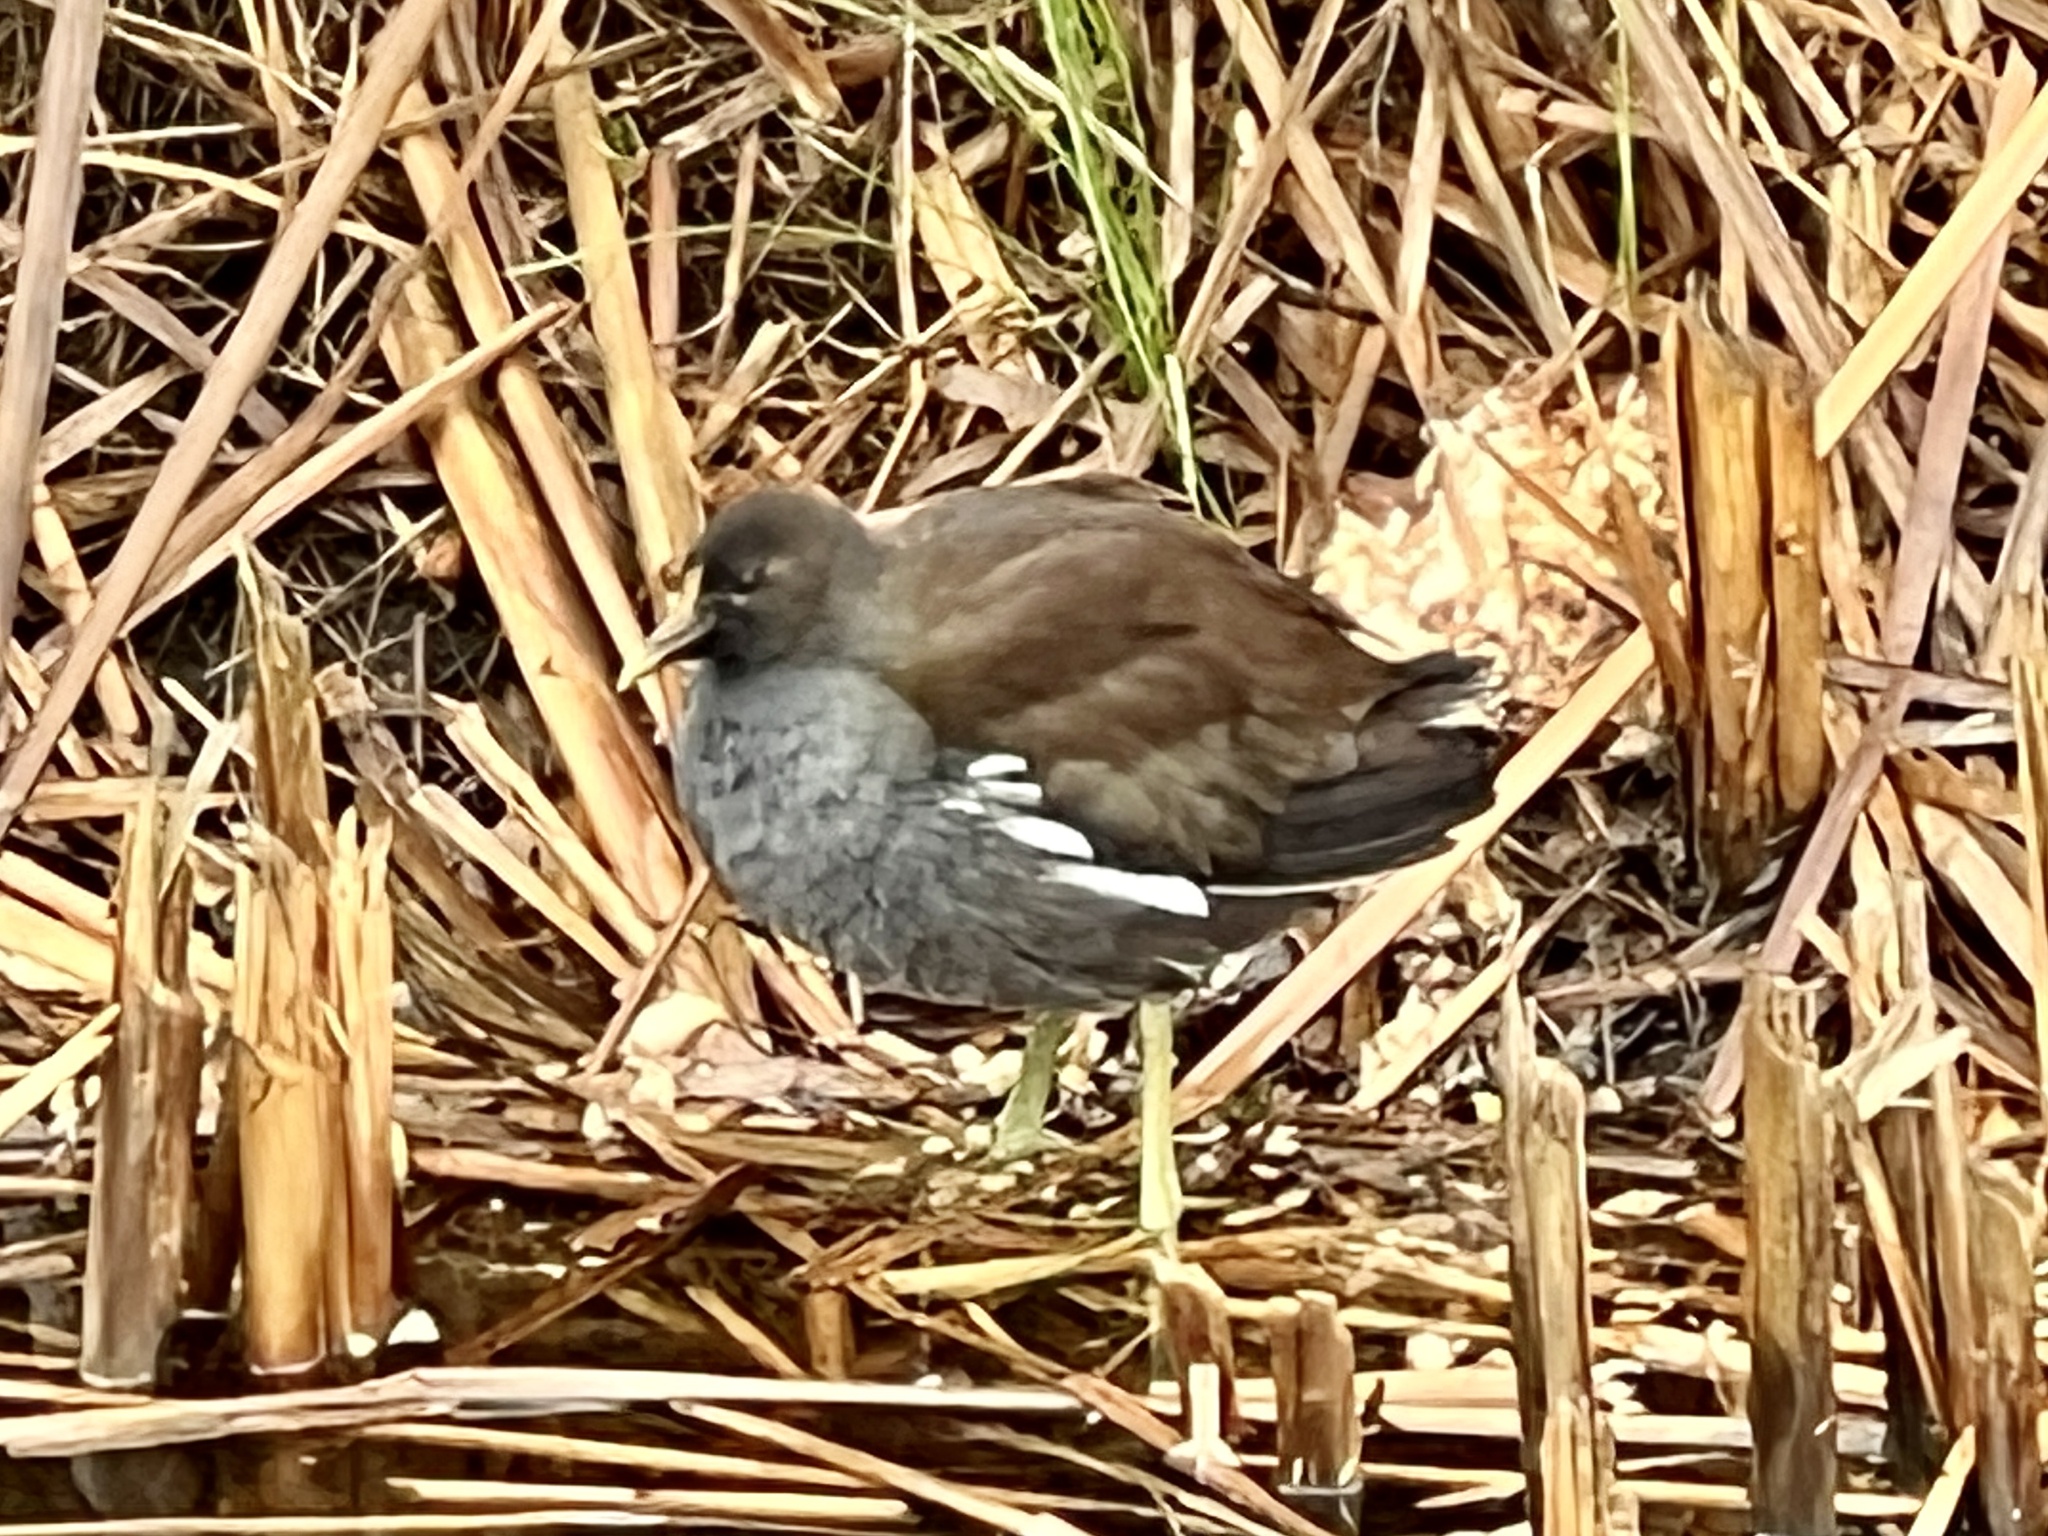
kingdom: Animalia
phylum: Chordata
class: Aves
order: Gruiformes
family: Rallidae
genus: Gallinula
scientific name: Gallinula chloropus
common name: Common moorhen
